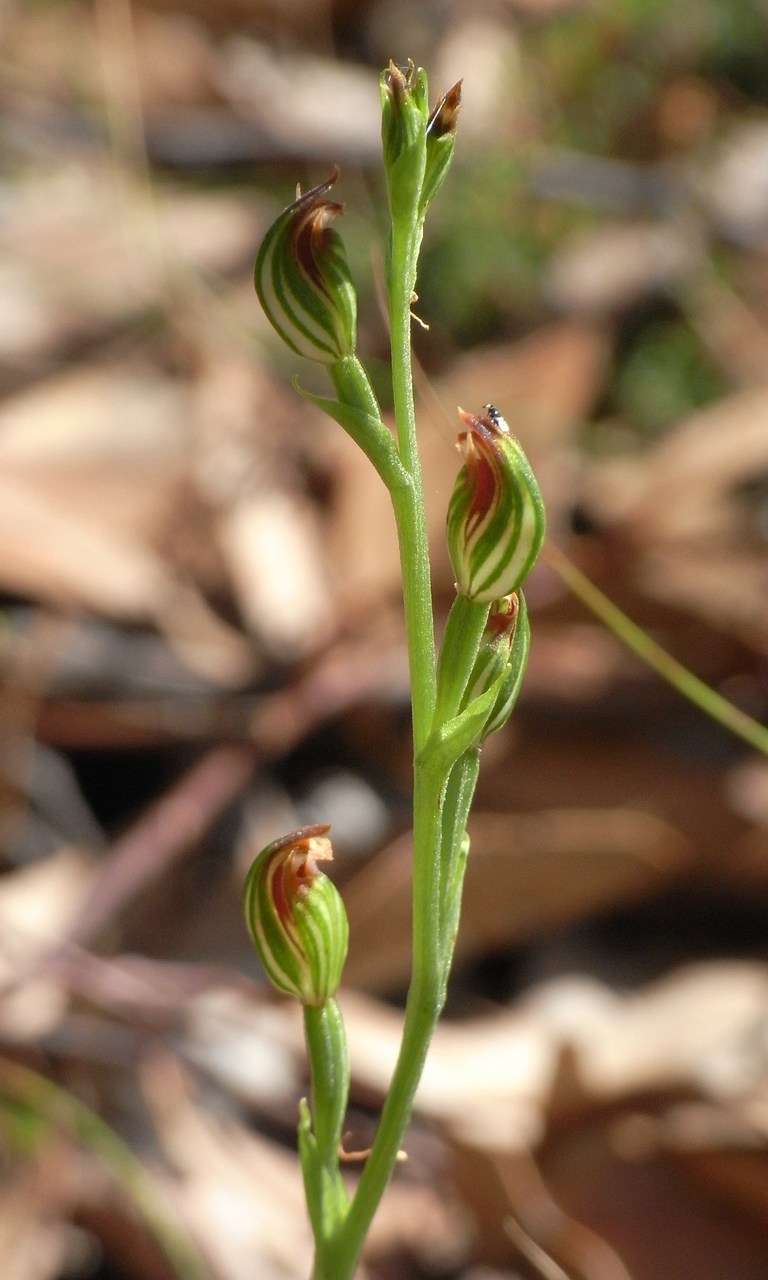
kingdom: Plantae
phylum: Tracheophyta
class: Liliopsida
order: Asparagales
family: Orchidaceae
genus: Pterostylis
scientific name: Pterostylis rubescens
